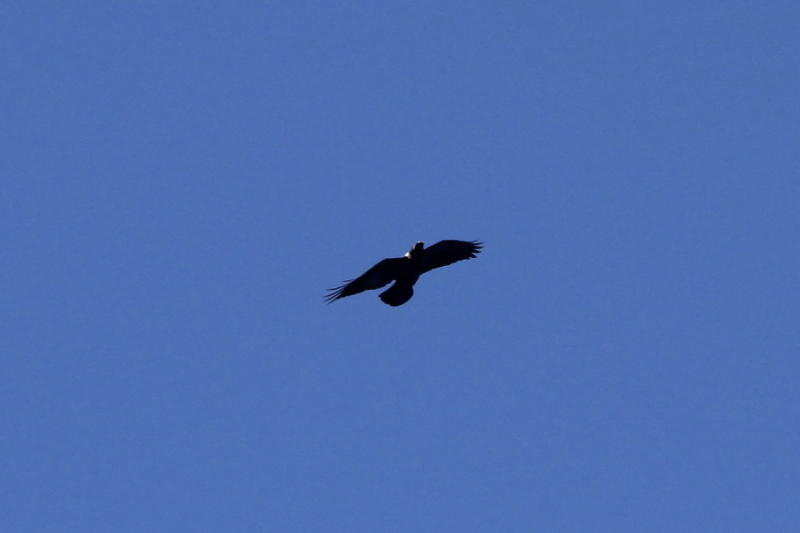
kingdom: Animalia
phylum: Chordata
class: Aves
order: Passeriformes
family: Corvidae
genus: Corvus
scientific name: Corvus albicollis
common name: White-necked raven
